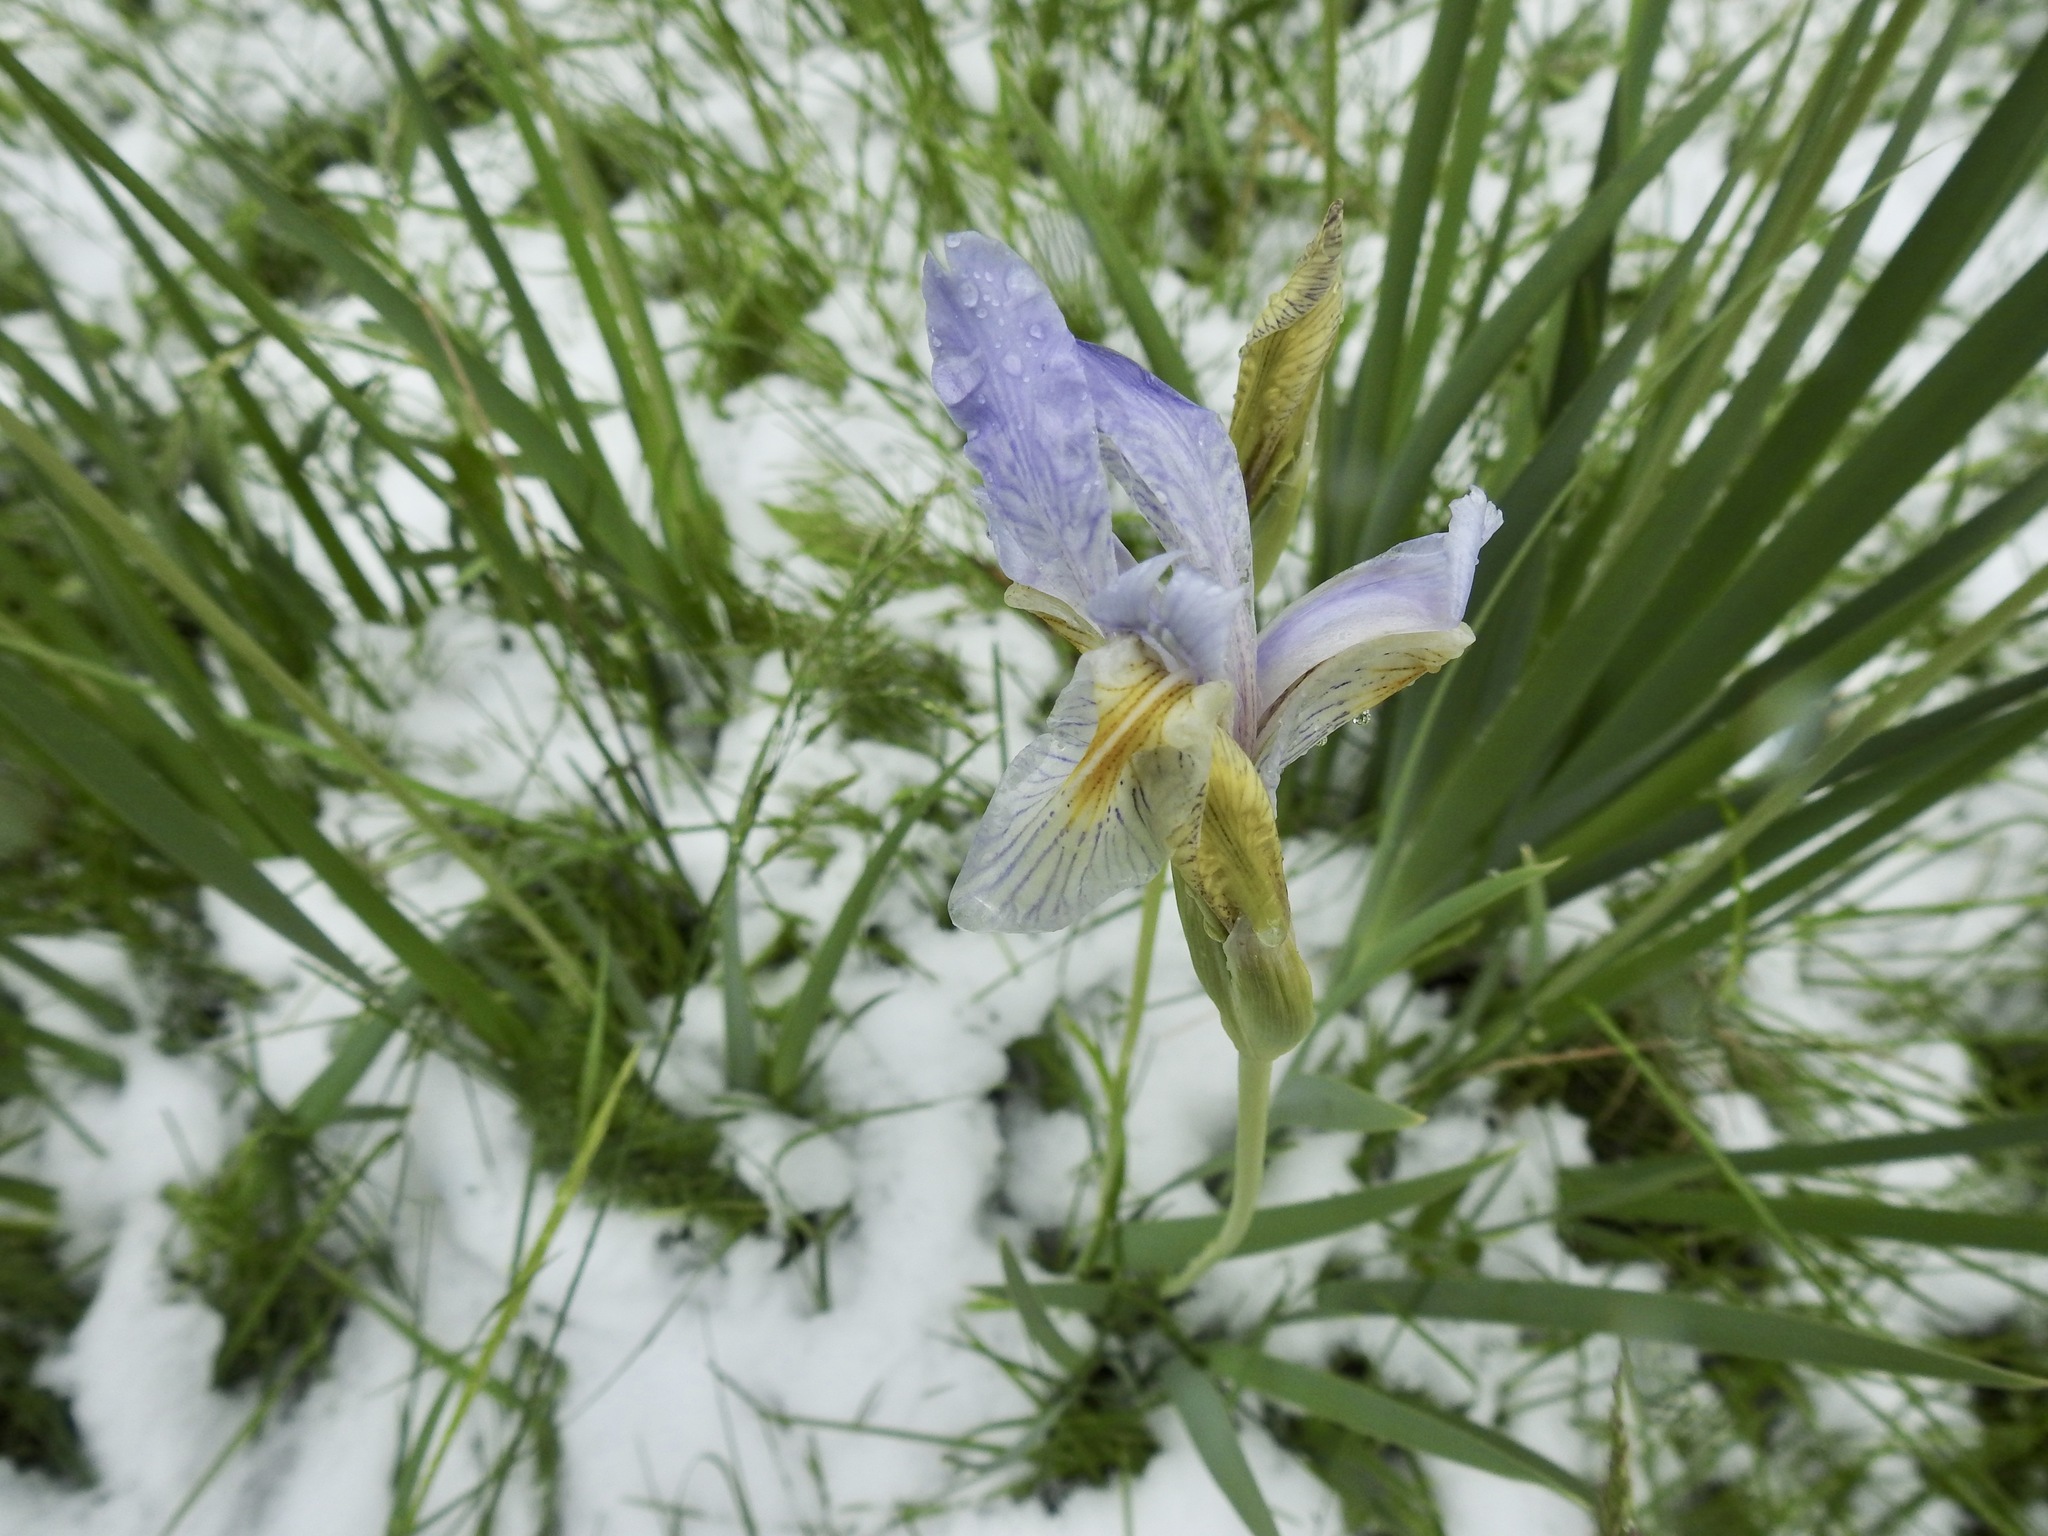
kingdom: Plantae
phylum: Tracheophyta
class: Liliopsida
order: Asparagales
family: Iridaceae
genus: Iris
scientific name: Iris missouriensis
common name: Rocky mountain iris
